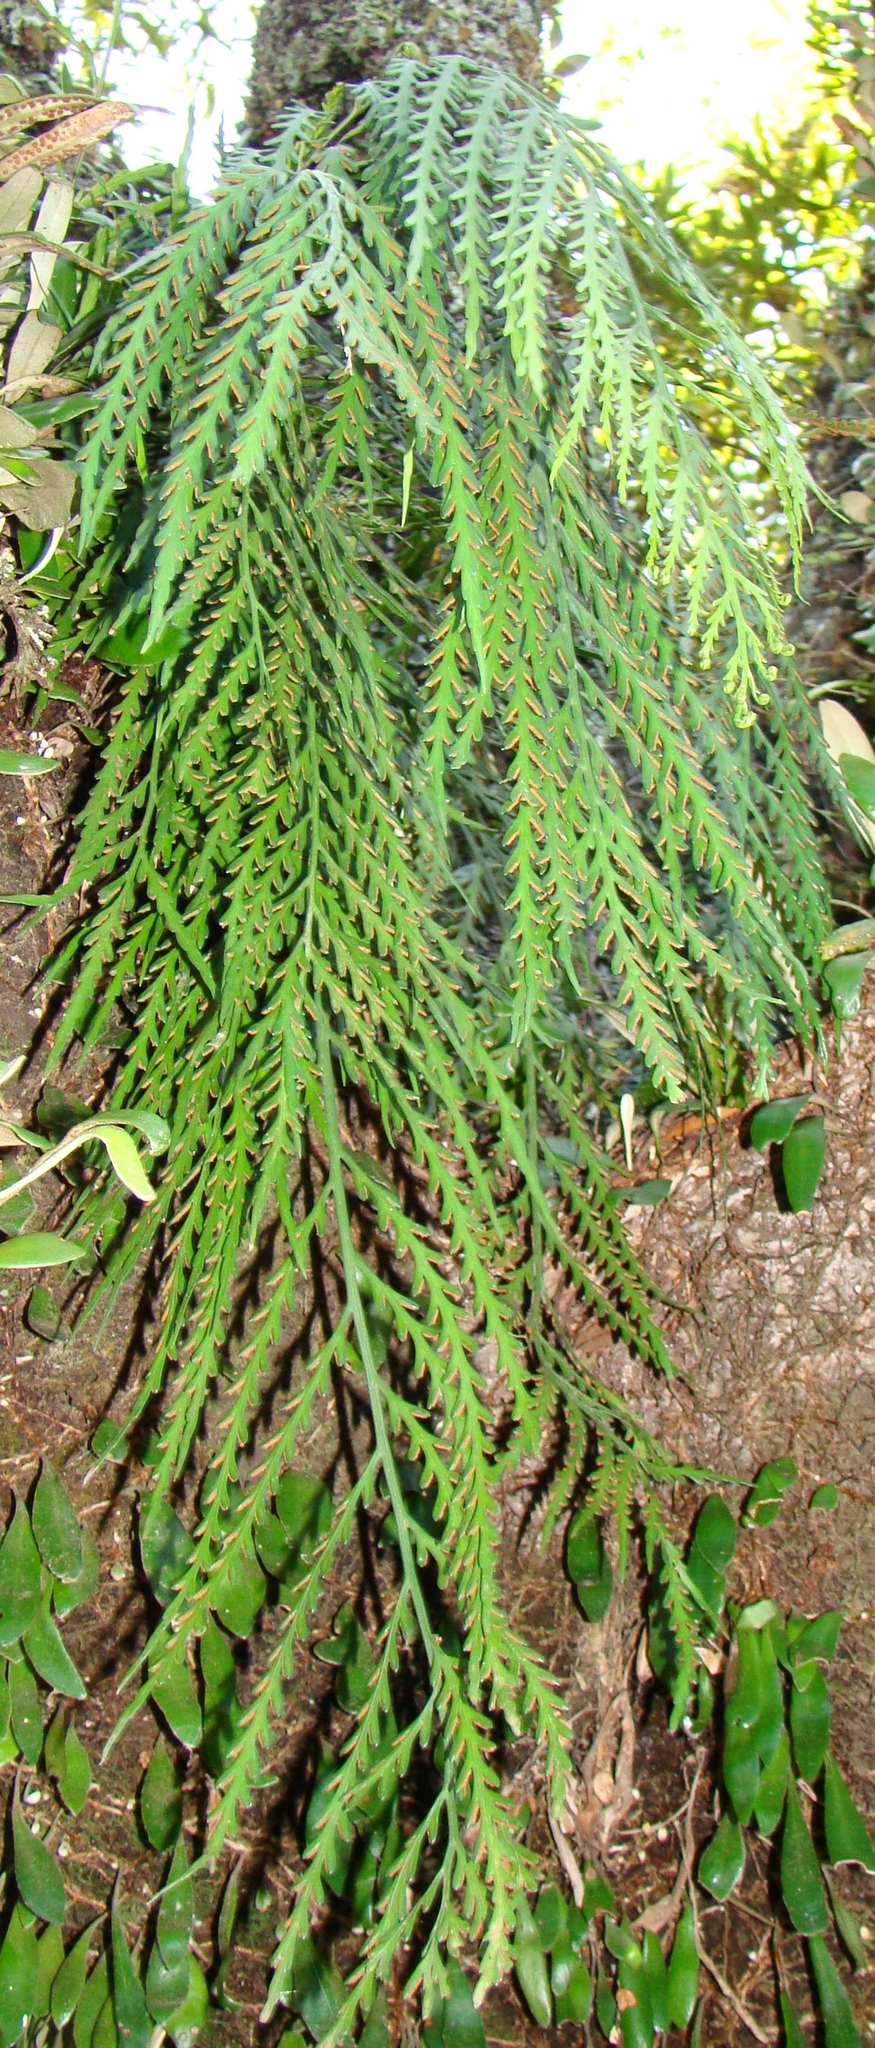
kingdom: Plantae
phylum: Tracheophyta
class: Polypodiopsida
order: Polypodiales
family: Aspleniaceae
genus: Asplenium
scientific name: Asplenium flaccidum
